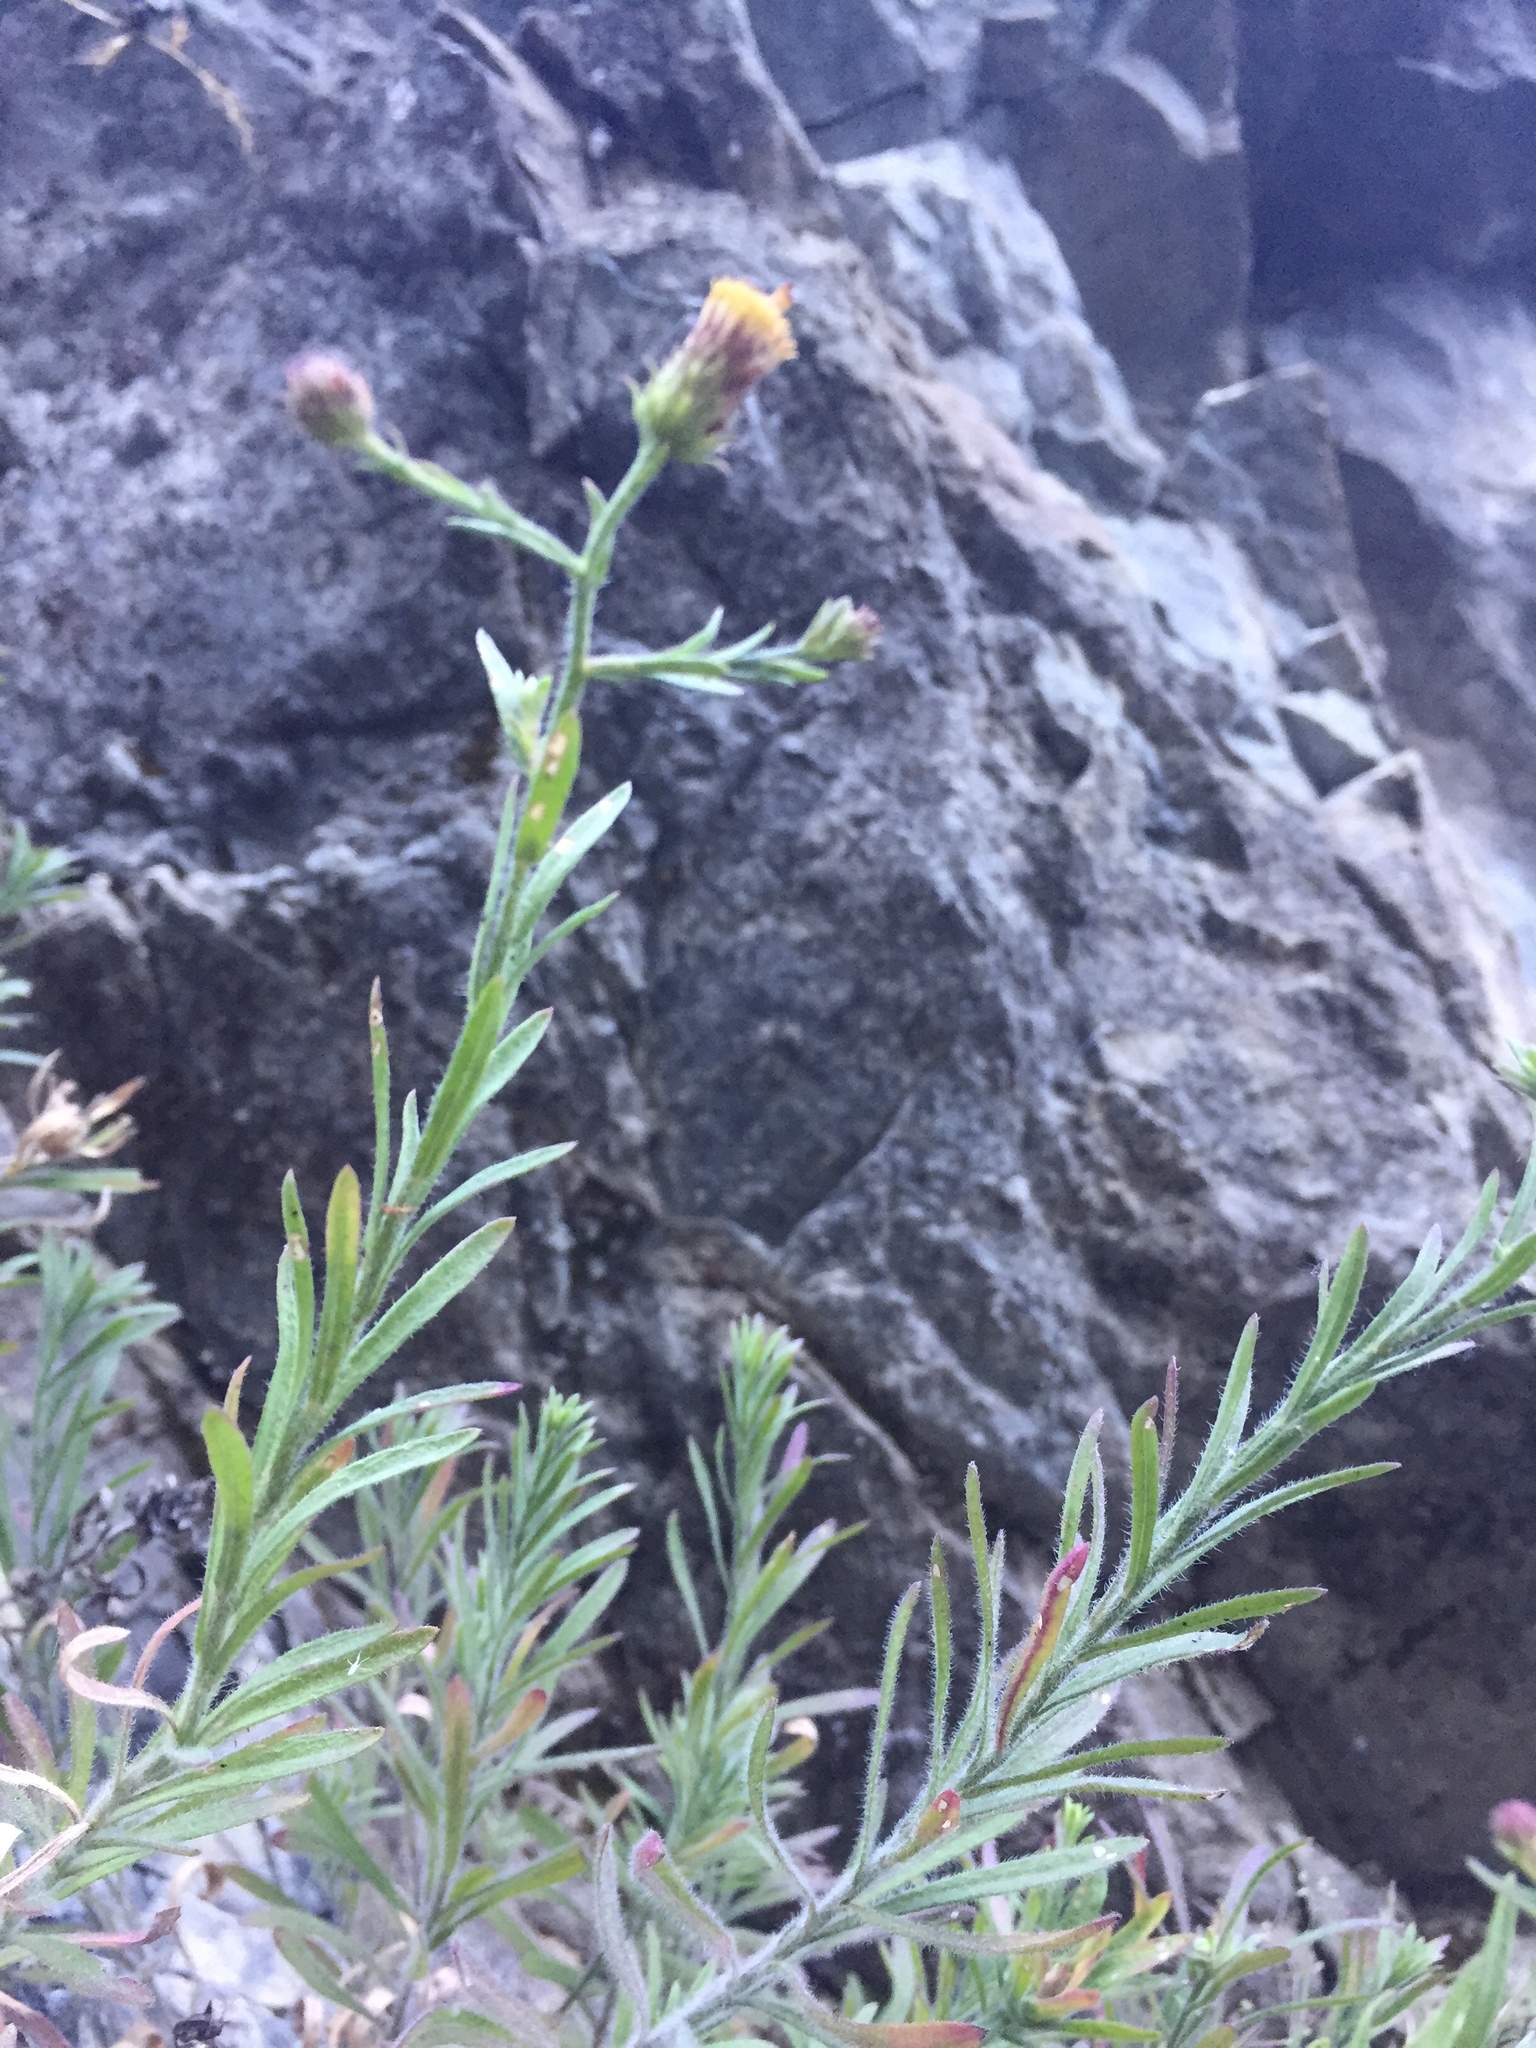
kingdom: Plantae
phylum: Tracheophyta
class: Magnoliopsida
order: Asterales
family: Asteraceae
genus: Erigeron
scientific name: Erigeron petrophilus
